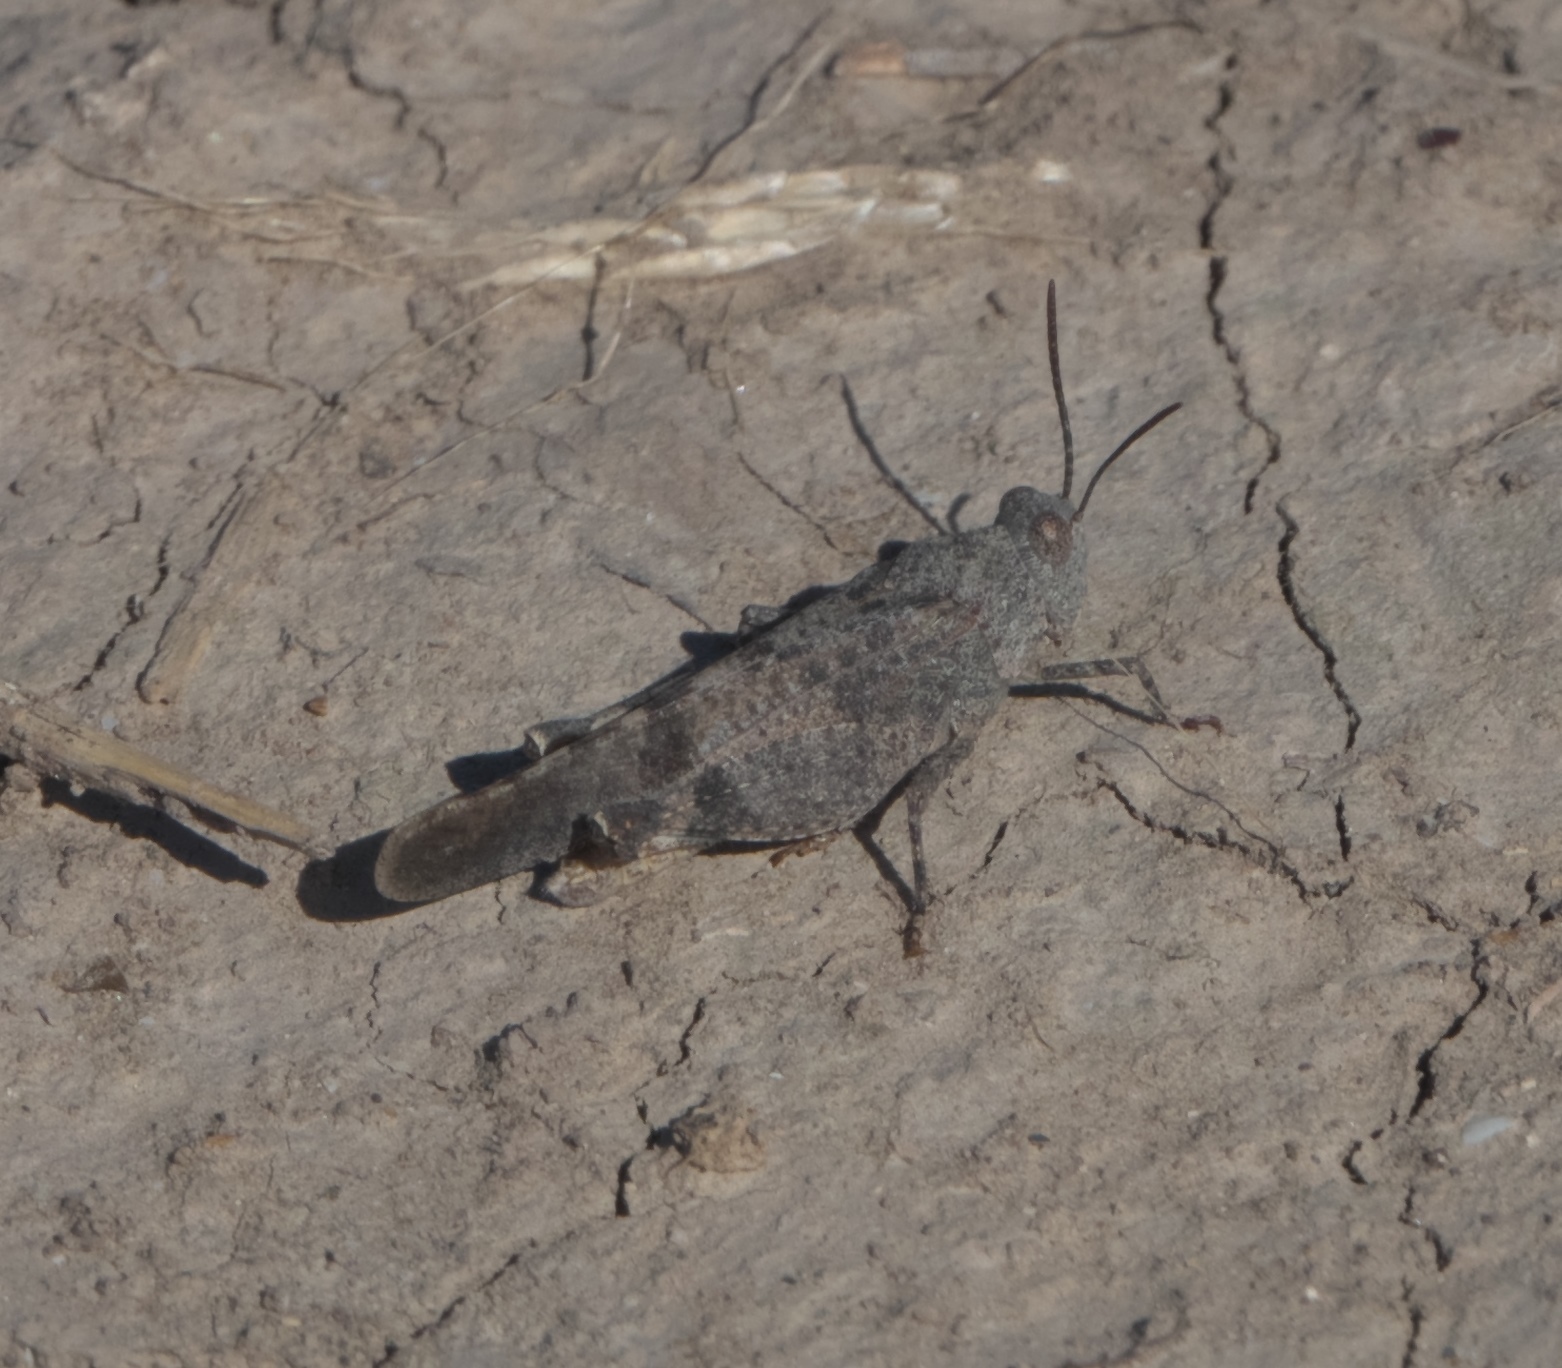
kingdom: Animalia
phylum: Arthropoda
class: Insecta
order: Orthoptera
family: Acrididae
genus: Lactista
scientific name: Lactista azteca
